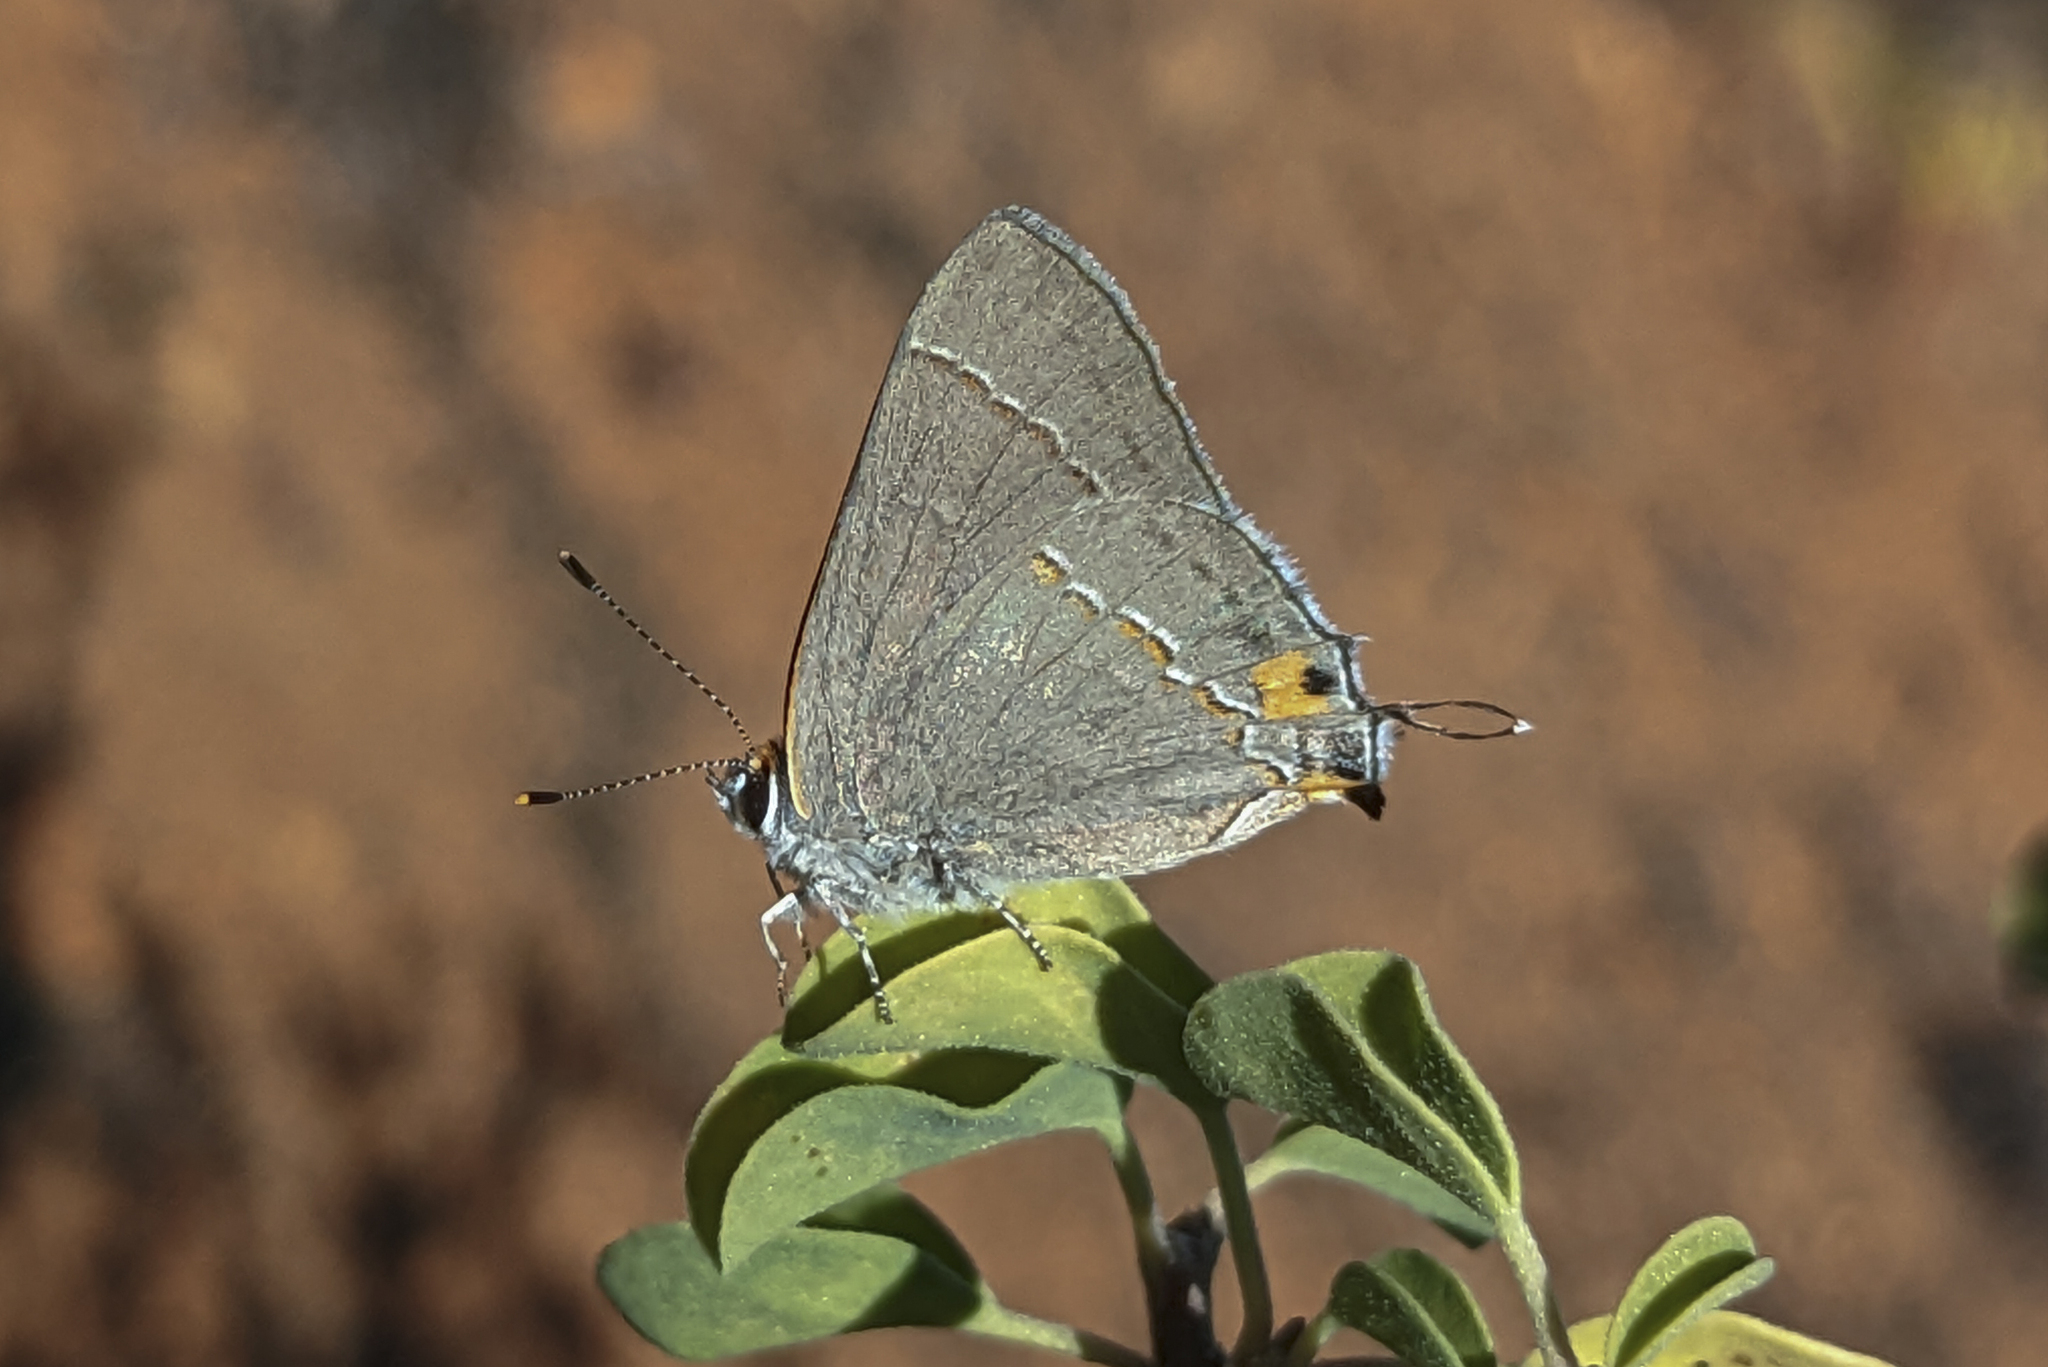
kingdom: Animalia
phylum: Arthropoda
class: Insecta
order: Lepidoptera
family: Lycaenidae
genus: Thecla
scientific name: Thecla pudica
